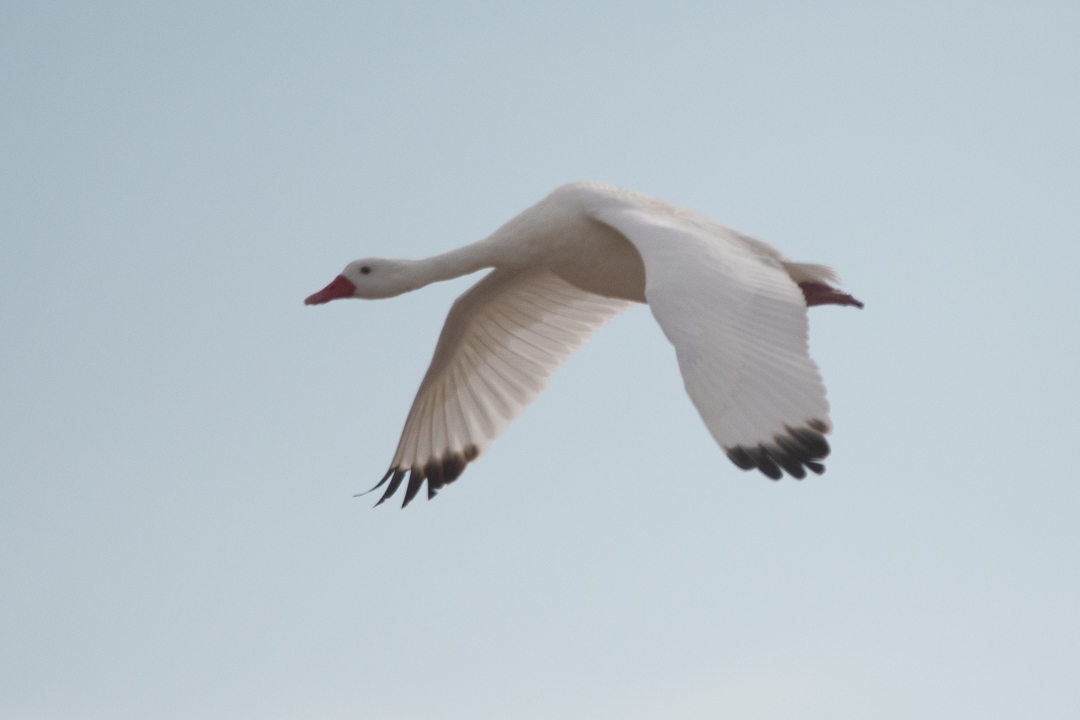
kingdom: Animalia
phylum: Chordata
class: Aves
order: Anseriformes
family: Anatidae
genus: Coscoroba
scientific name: Coscoroba coscoroba
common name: Coscoroba swan
